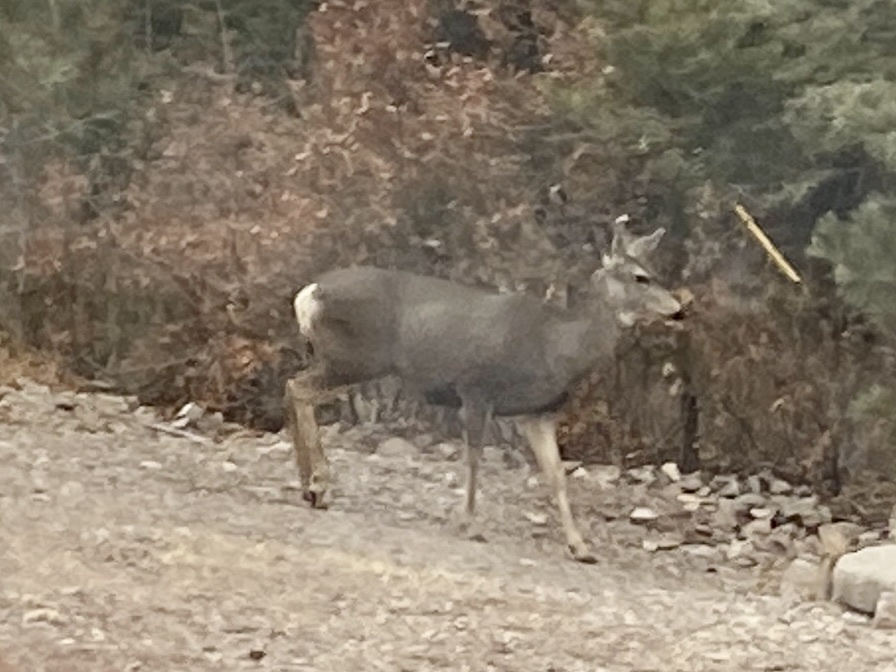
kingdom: Animalia
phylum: Chordata
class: Mammalia
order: Artiodactyla
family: Cervidae
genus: Odocoileus
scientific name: Odocoileus hemionus
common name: Mule deer
